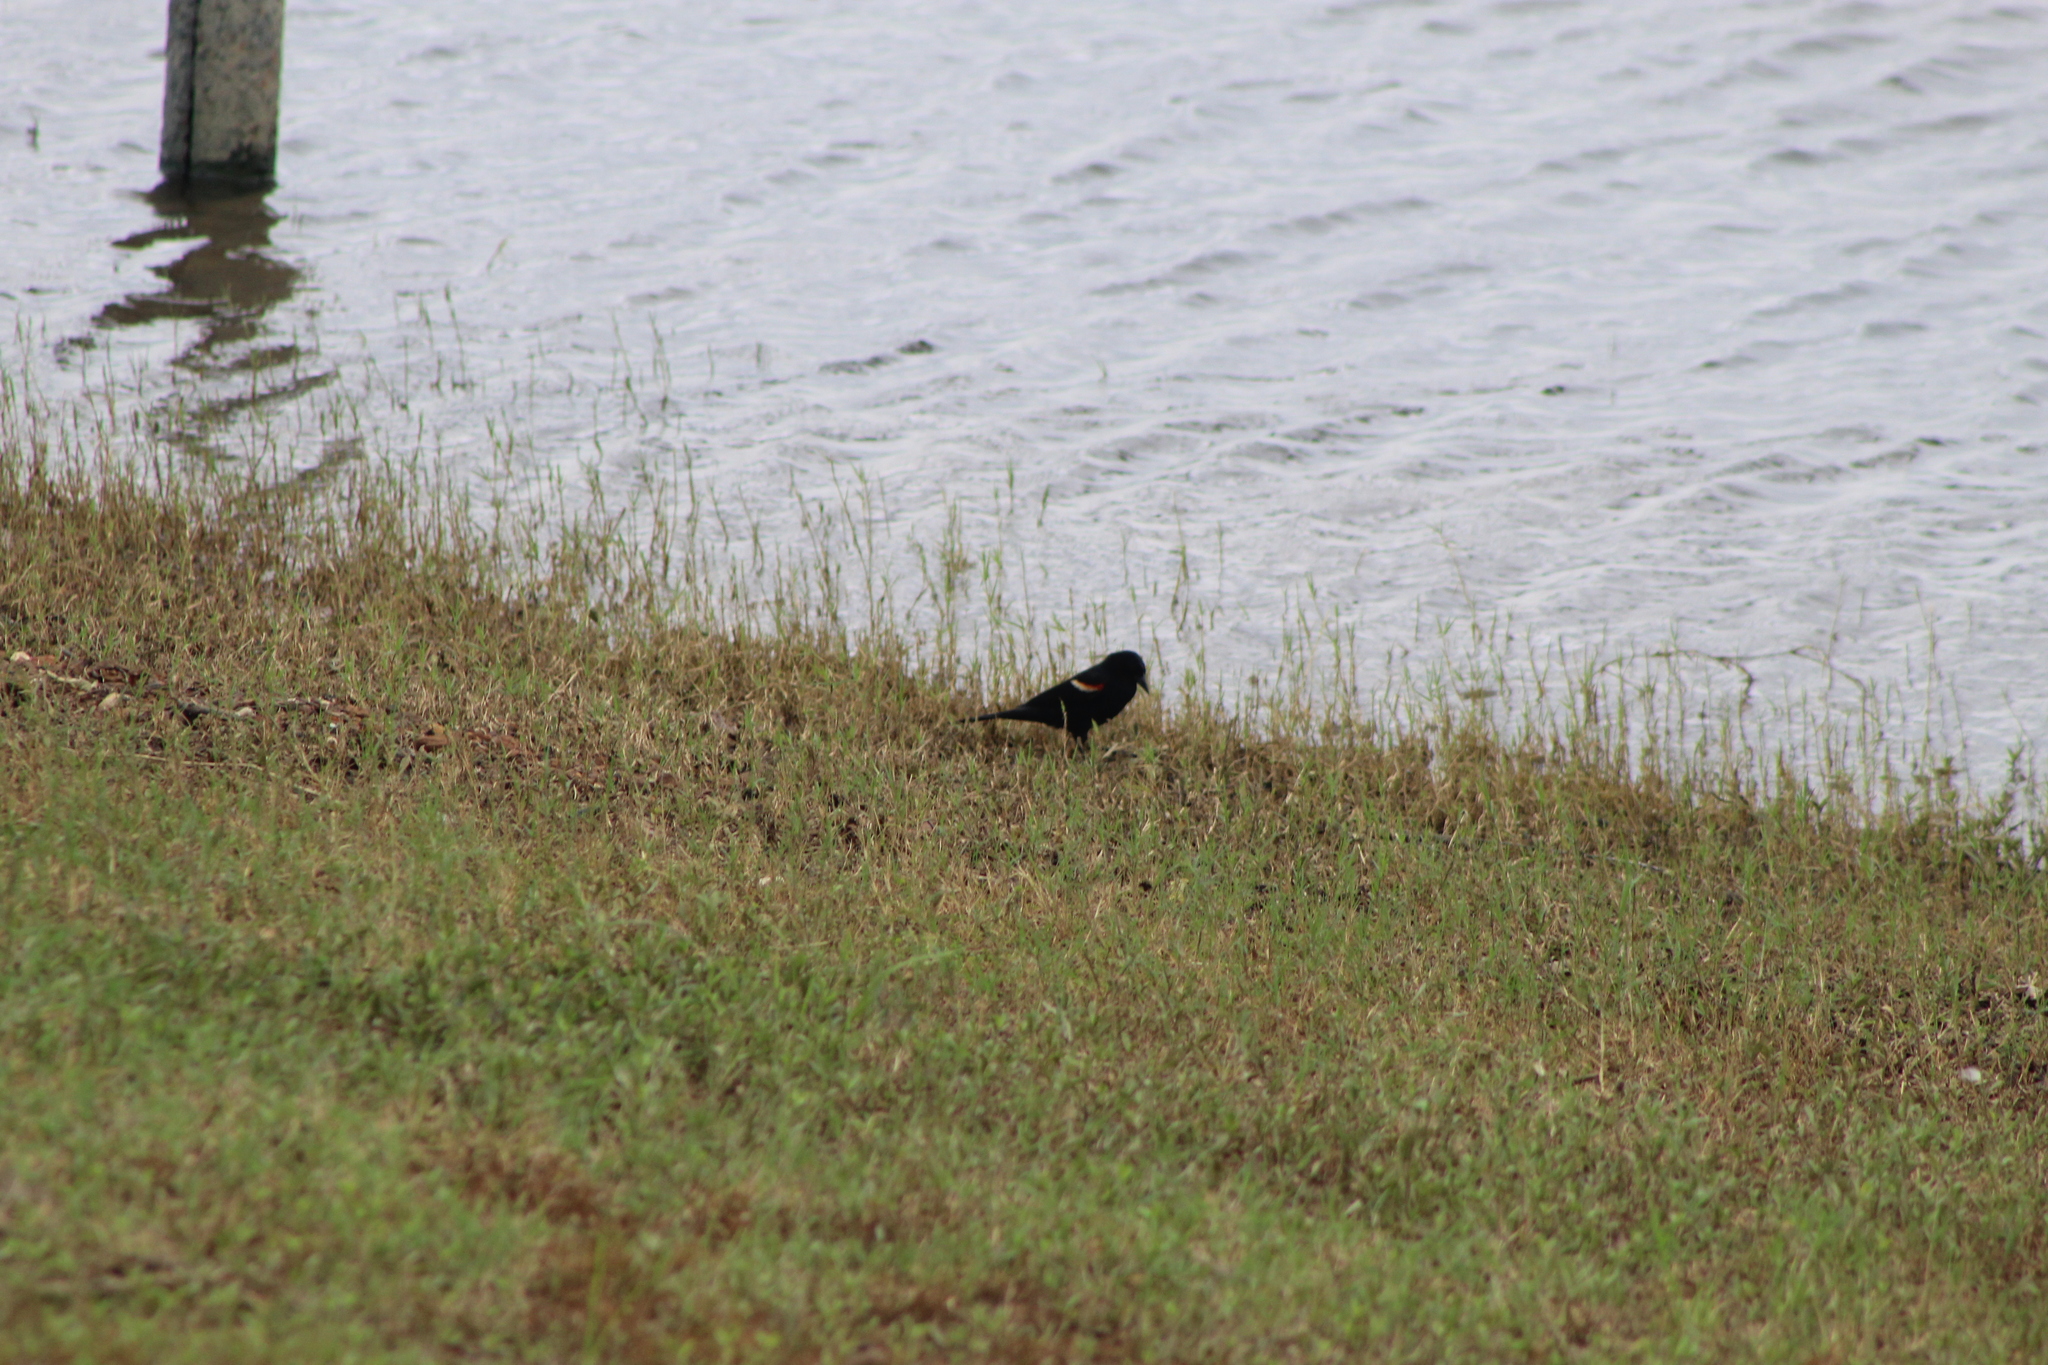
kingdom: Animalia
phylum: Chordata
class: Aves
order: Passeriformes
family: Icteridae
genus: Quiscalus
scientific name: Quiscalus mexicanus
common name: Great-tailed grackle
